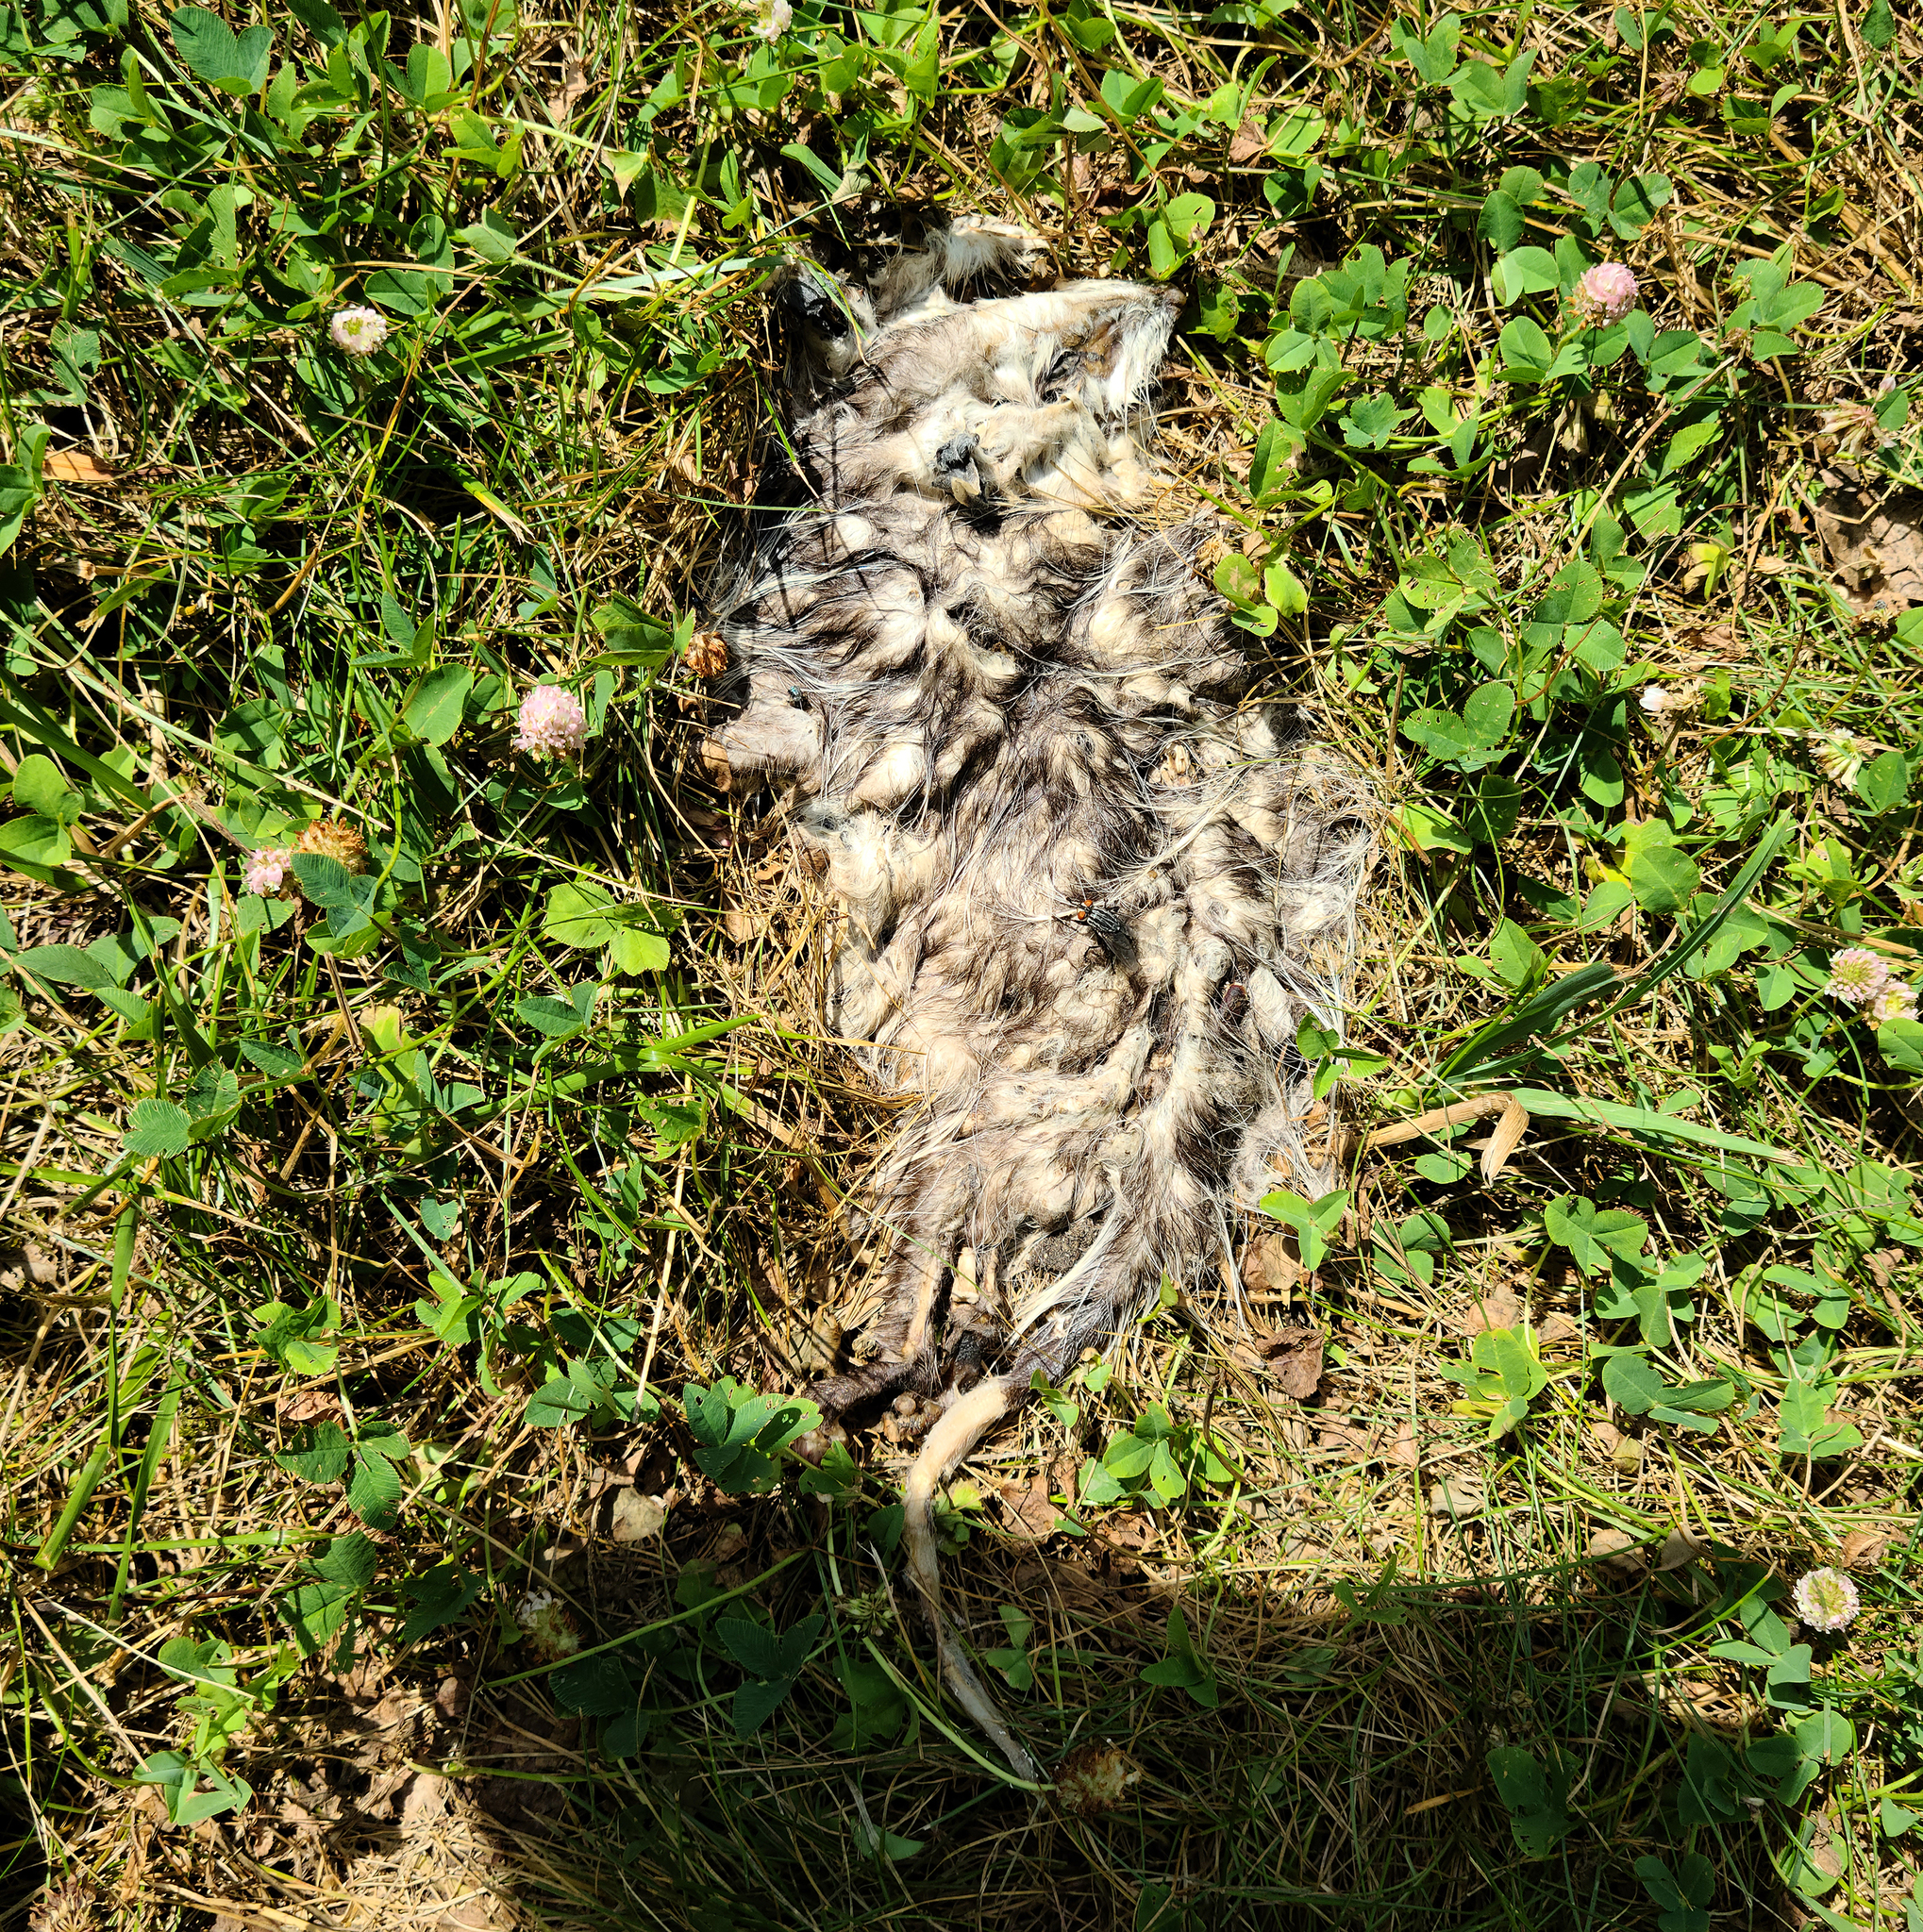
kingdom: Animalia
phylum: Chordata
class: Mammalia
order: Didelphimorphia
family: Didelphidae
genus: Didelphis
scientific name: Didelphis virginiana
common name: Virginia opossum
